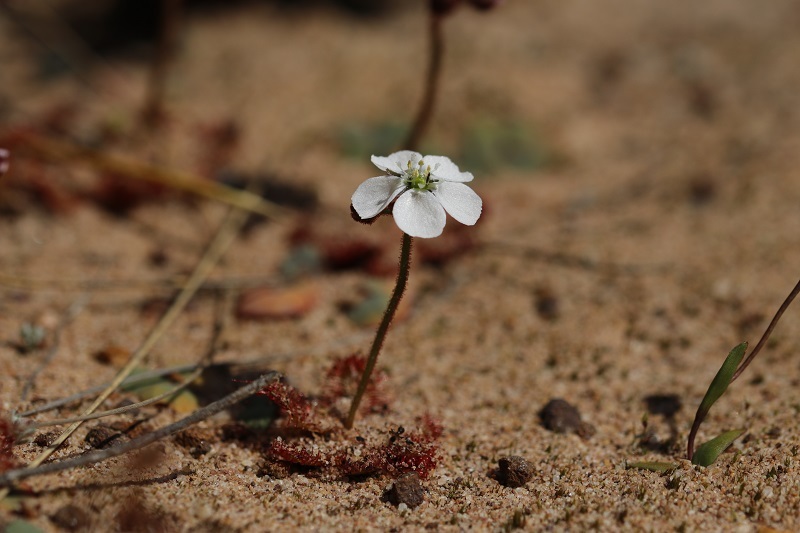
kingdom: Plantae
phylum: Tracheophyta
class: Magnoliopsida
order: Caryophyllales
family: Droseraceae
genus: Drosera
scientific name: Drosera trinervia
